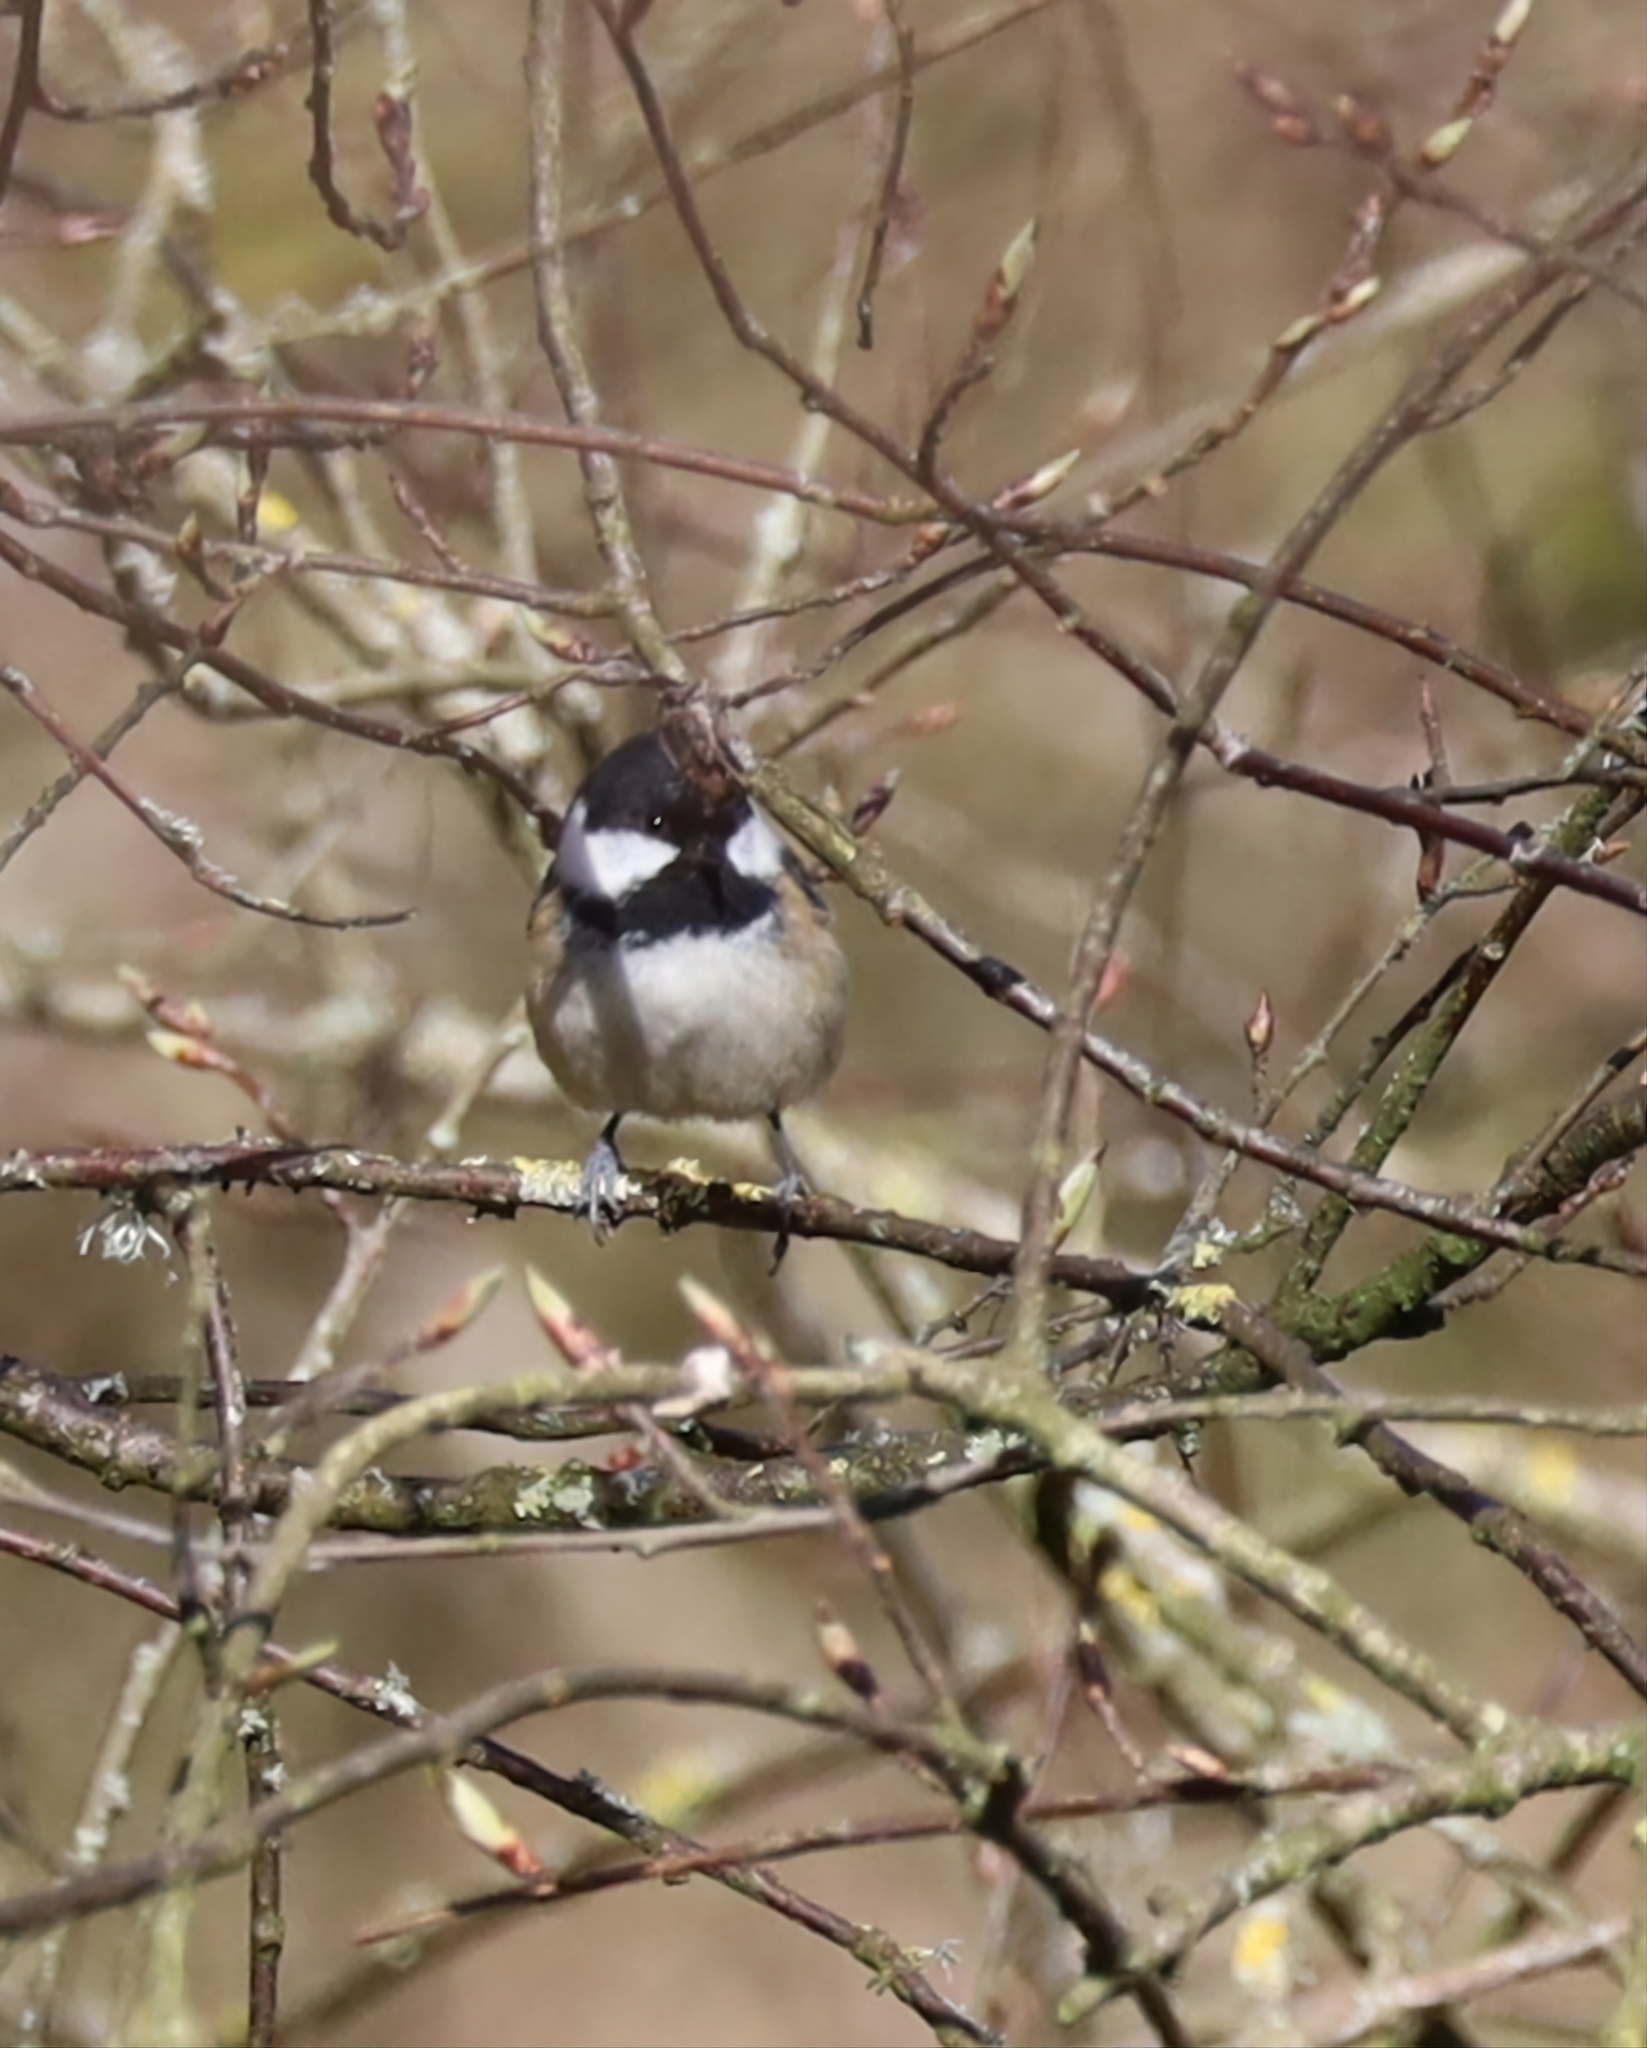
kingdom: Animalia
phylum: Chordata
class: Aves
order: Passeriformes
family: Paridae
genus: Periparus
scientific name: Periparus ater
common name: Coal tit
